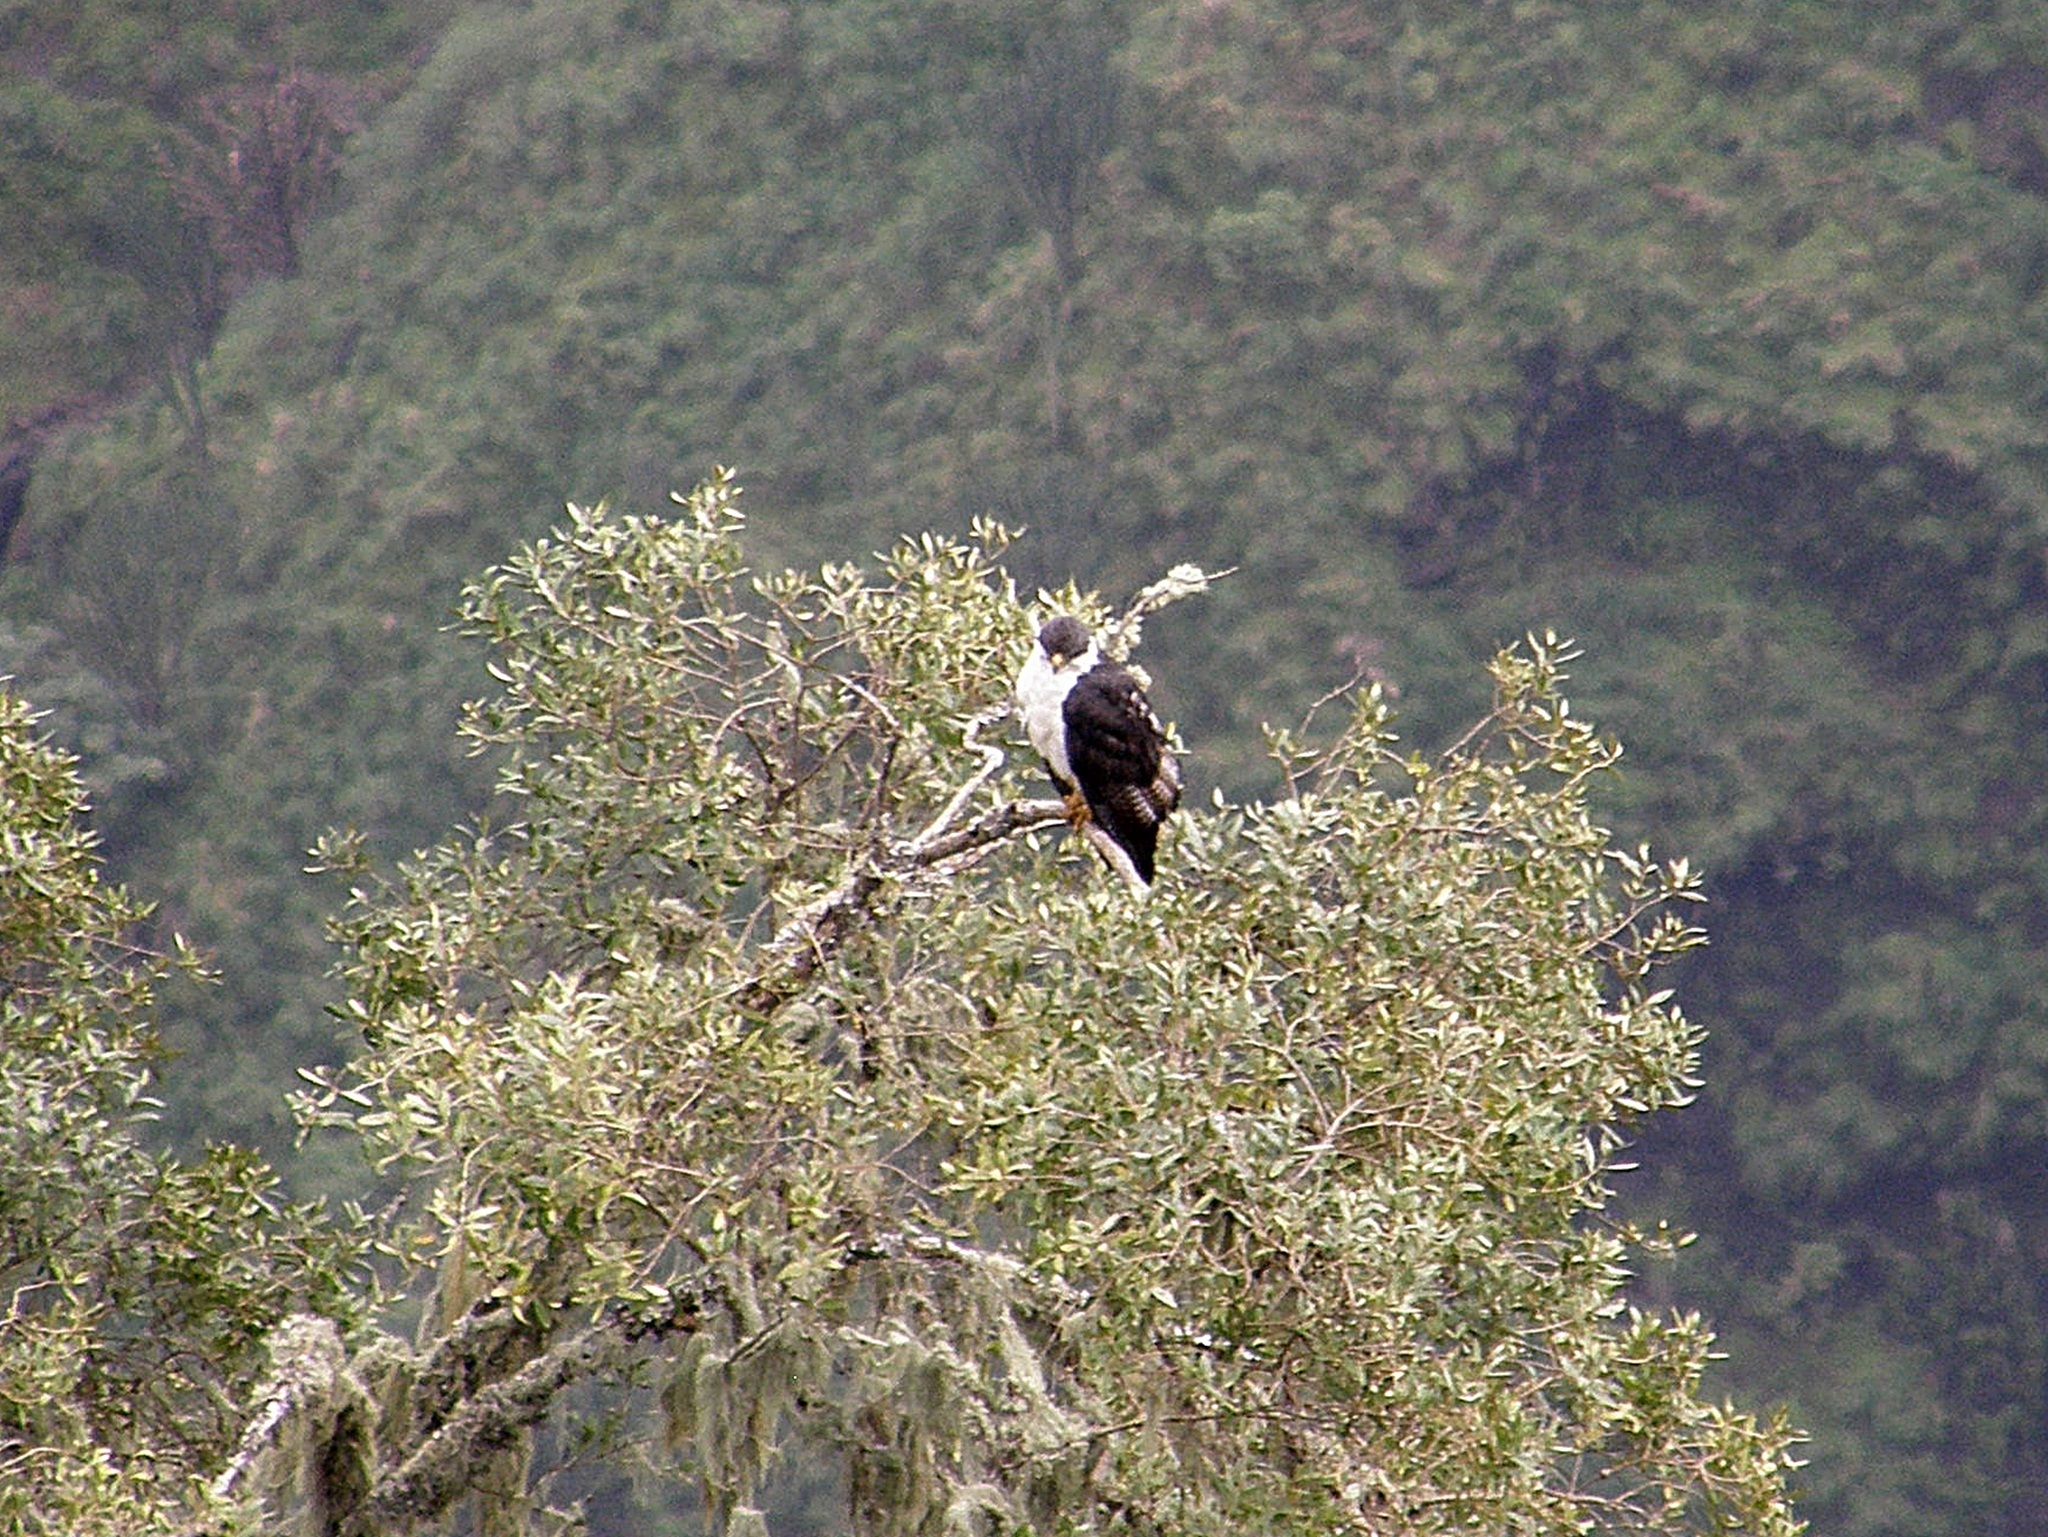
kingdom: Animalia
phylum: Chordata
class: Aves
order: Accipitriformes
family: Accipitridae
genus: Buteo
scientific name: Buteo augur
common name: Augur buzzard
